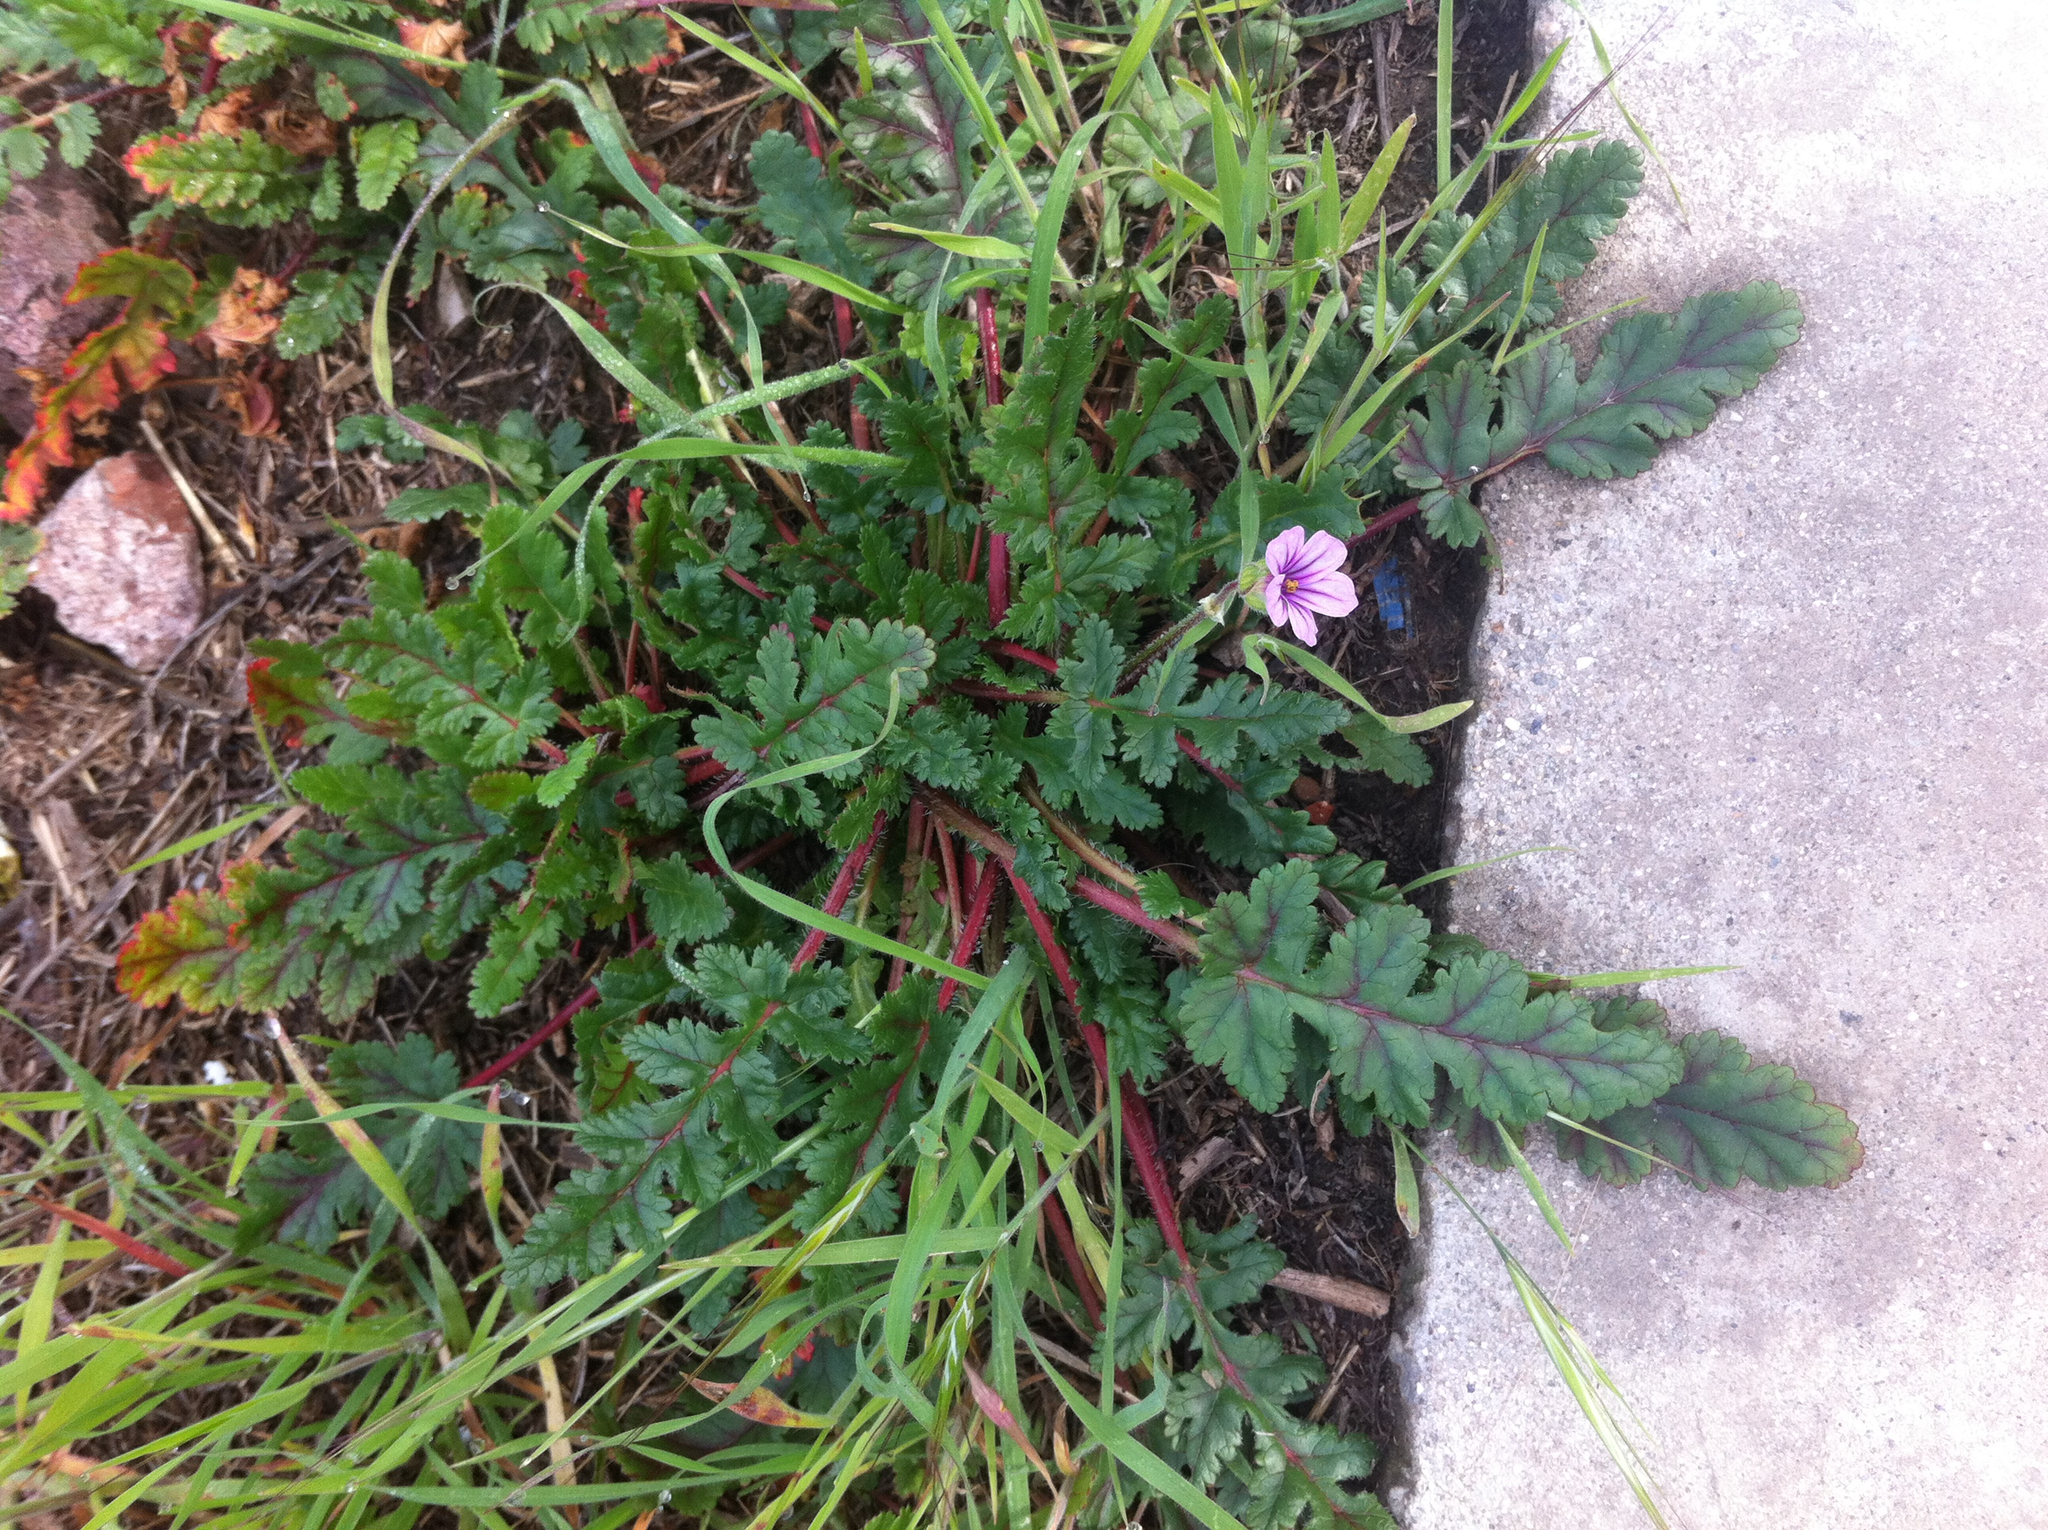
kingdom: Plantae
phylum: Tracheophyta
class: Magnoliopsida
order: Geraniales
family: Geraniaceae
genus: Erodium
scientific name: Erodium botrys
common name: Mediterranean stork's-bill
